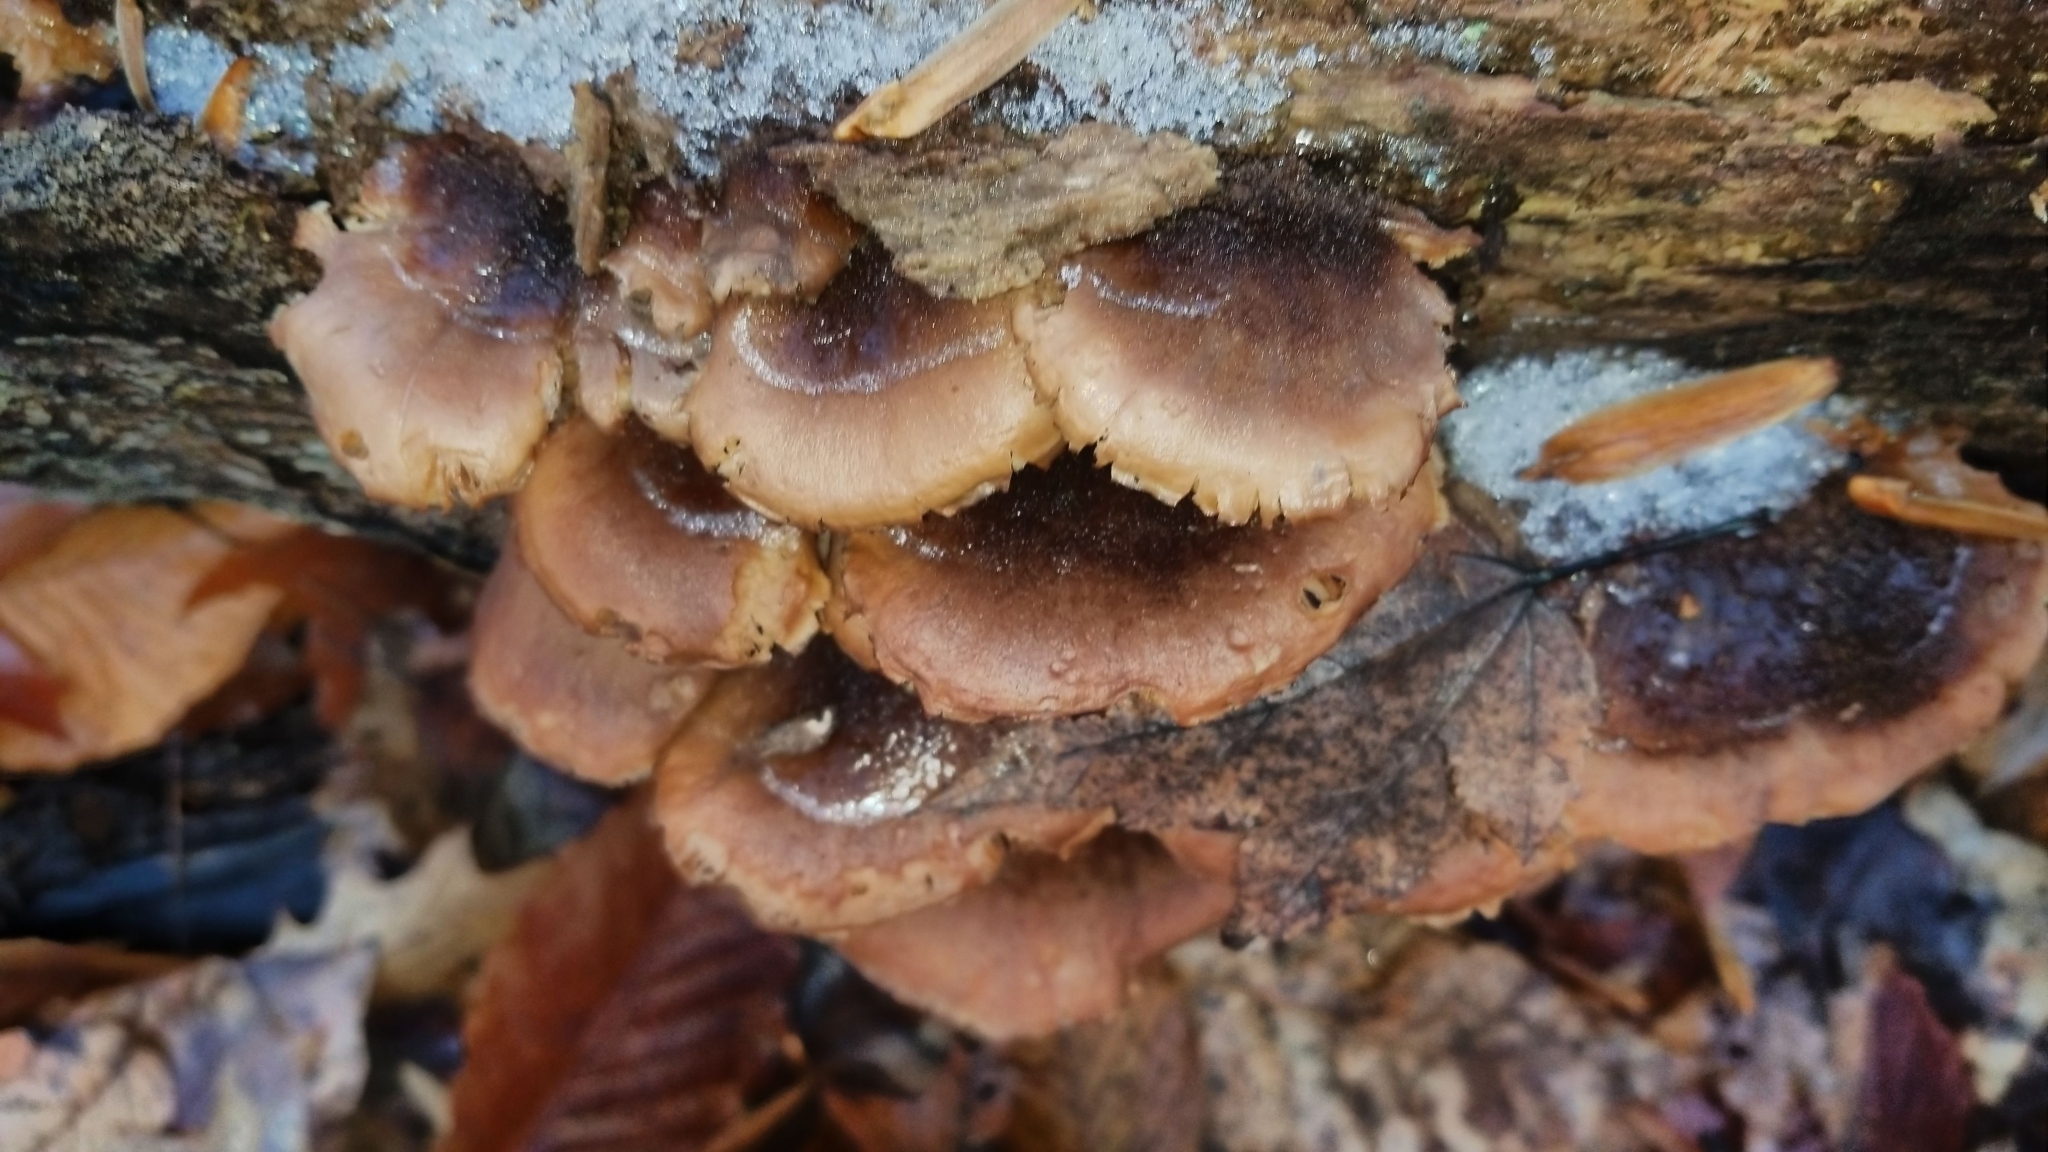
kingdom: Fungi
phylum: Basidiomycota
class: Agaricomycetes
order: Russulales
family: Auriscalpiaceae
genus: Lentinellus
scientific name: Lentinellus ursinus
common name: Bear lentinus
